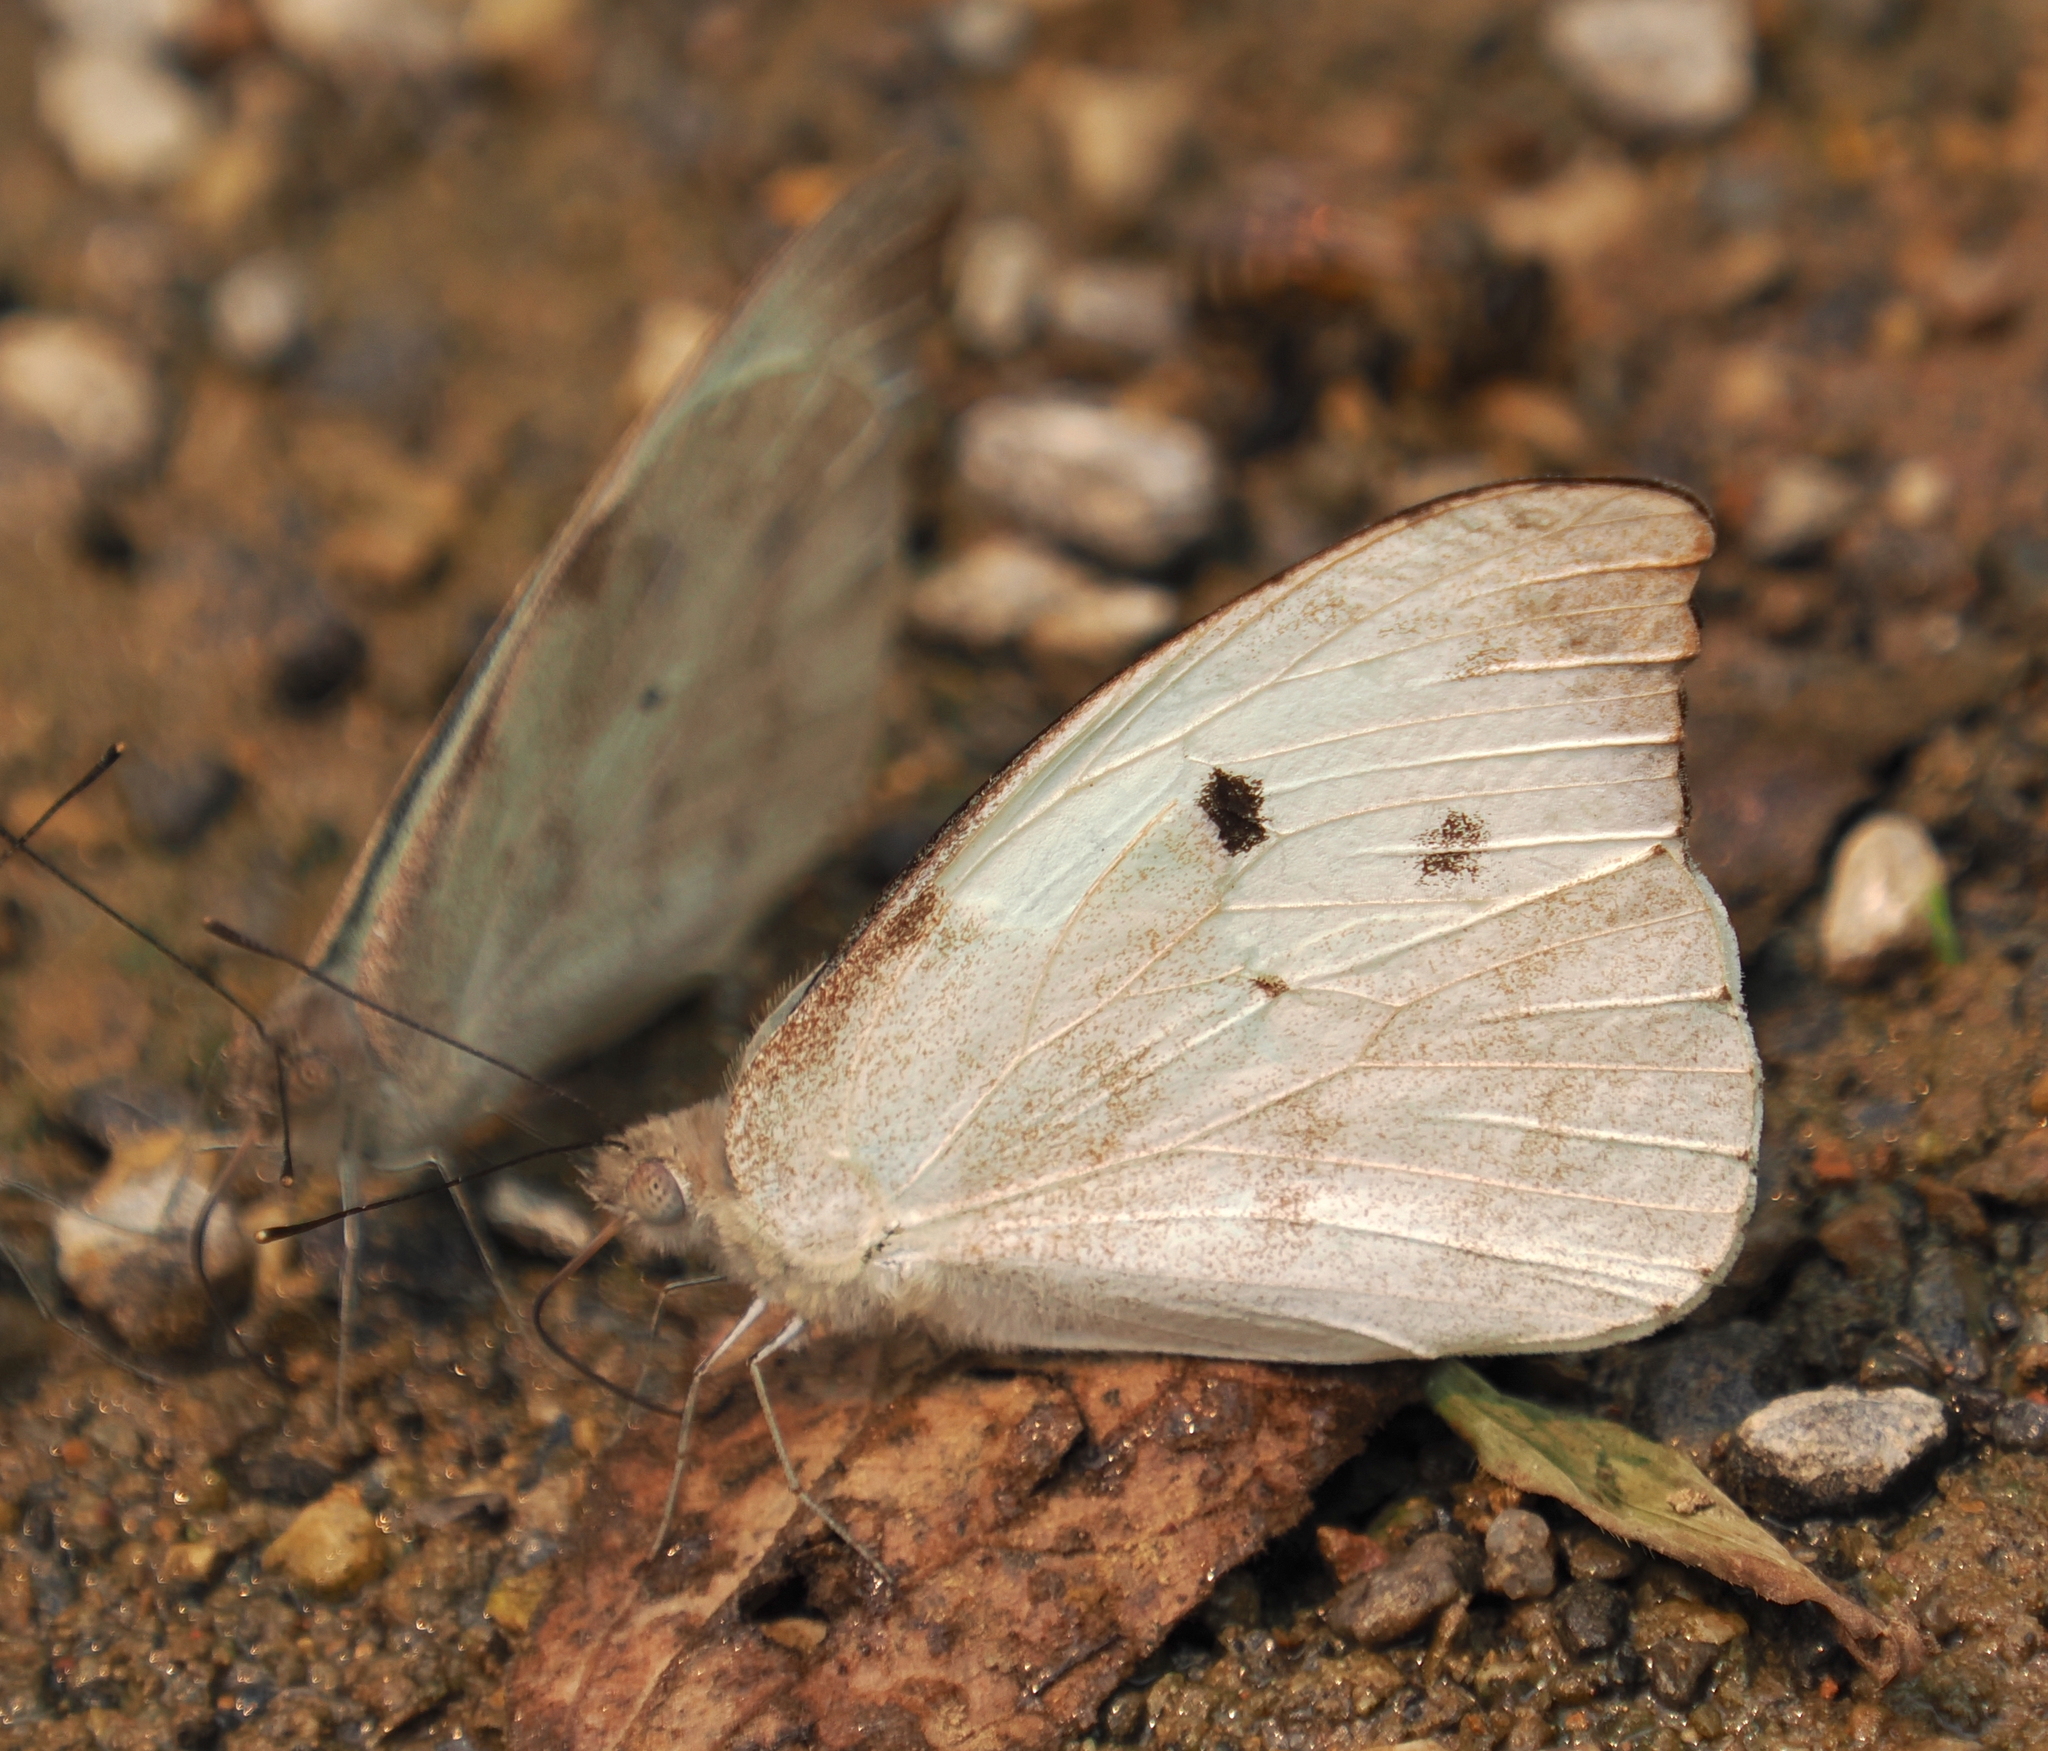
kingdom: Animalia
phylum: Arthropoda
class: Insecta
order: Lepidoptera
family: Pieridae
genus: Appias
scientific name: Appias lalage
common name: Spot puffin
